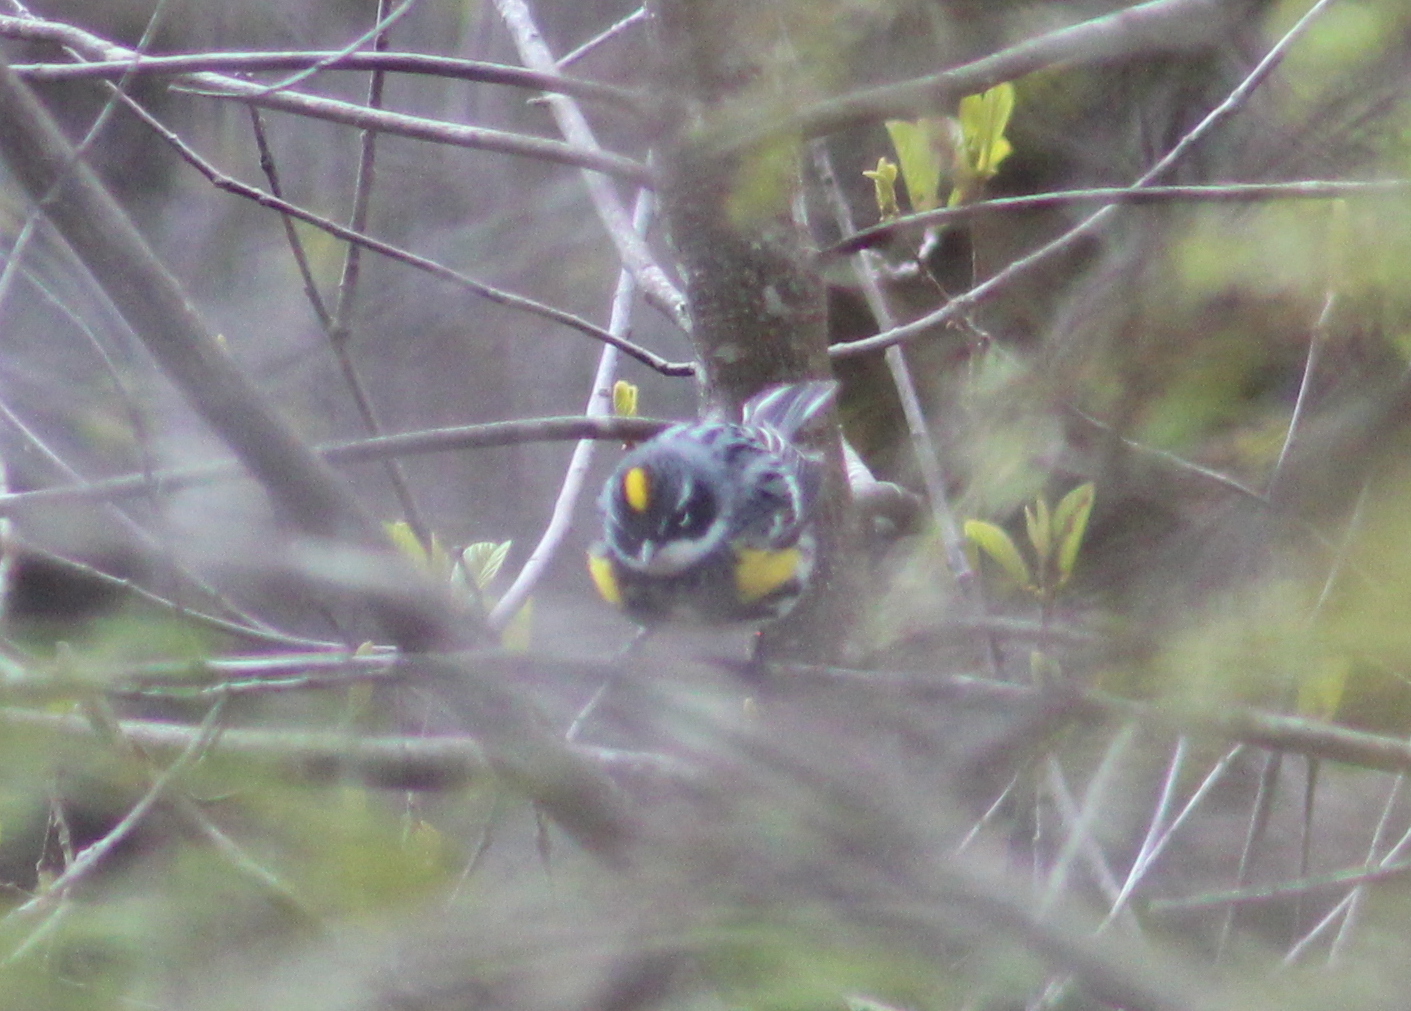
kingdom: Animalia
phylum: Chordata
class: Aves
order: Passeriformes
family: Parulidae
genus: Setophaga
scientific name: Setophaga coronata
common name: Myrtle warbler
